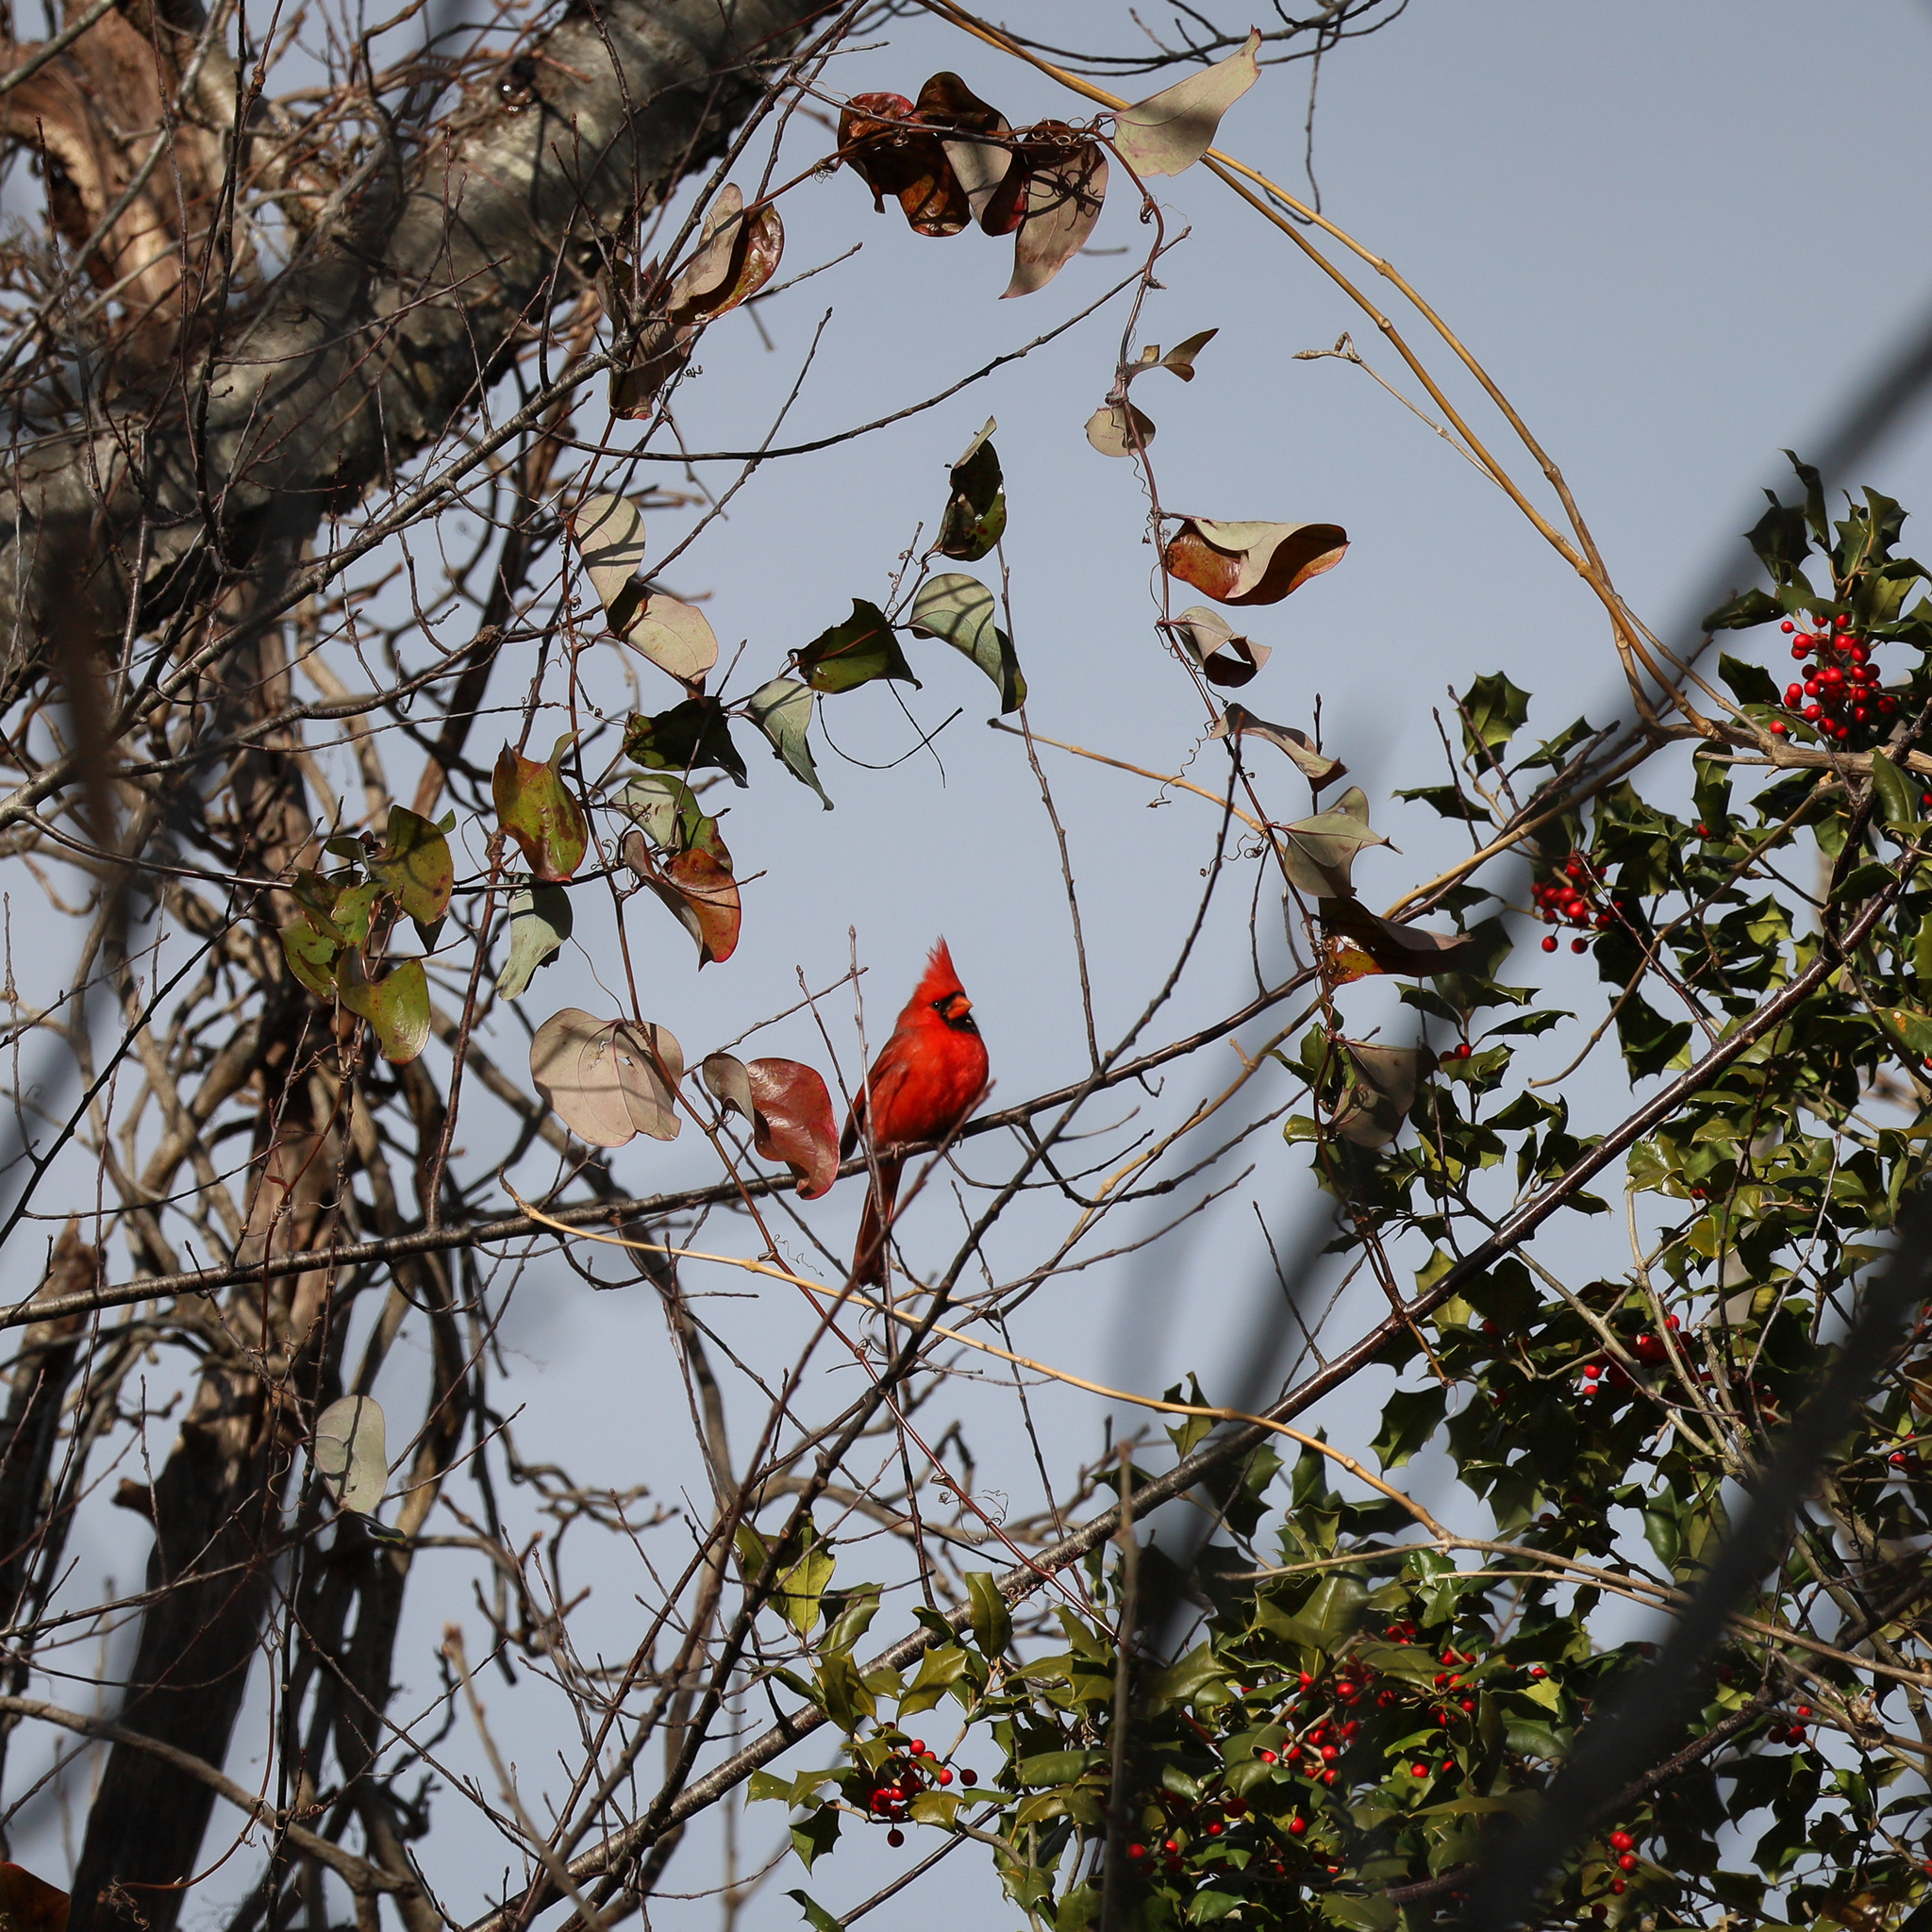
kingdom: Animalia
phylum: Chordata
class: Aves
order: Passeriformes
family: Cardinalidae
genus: Cardinalis
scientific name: Cardinalis cardinalis
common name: Northern cardinal
